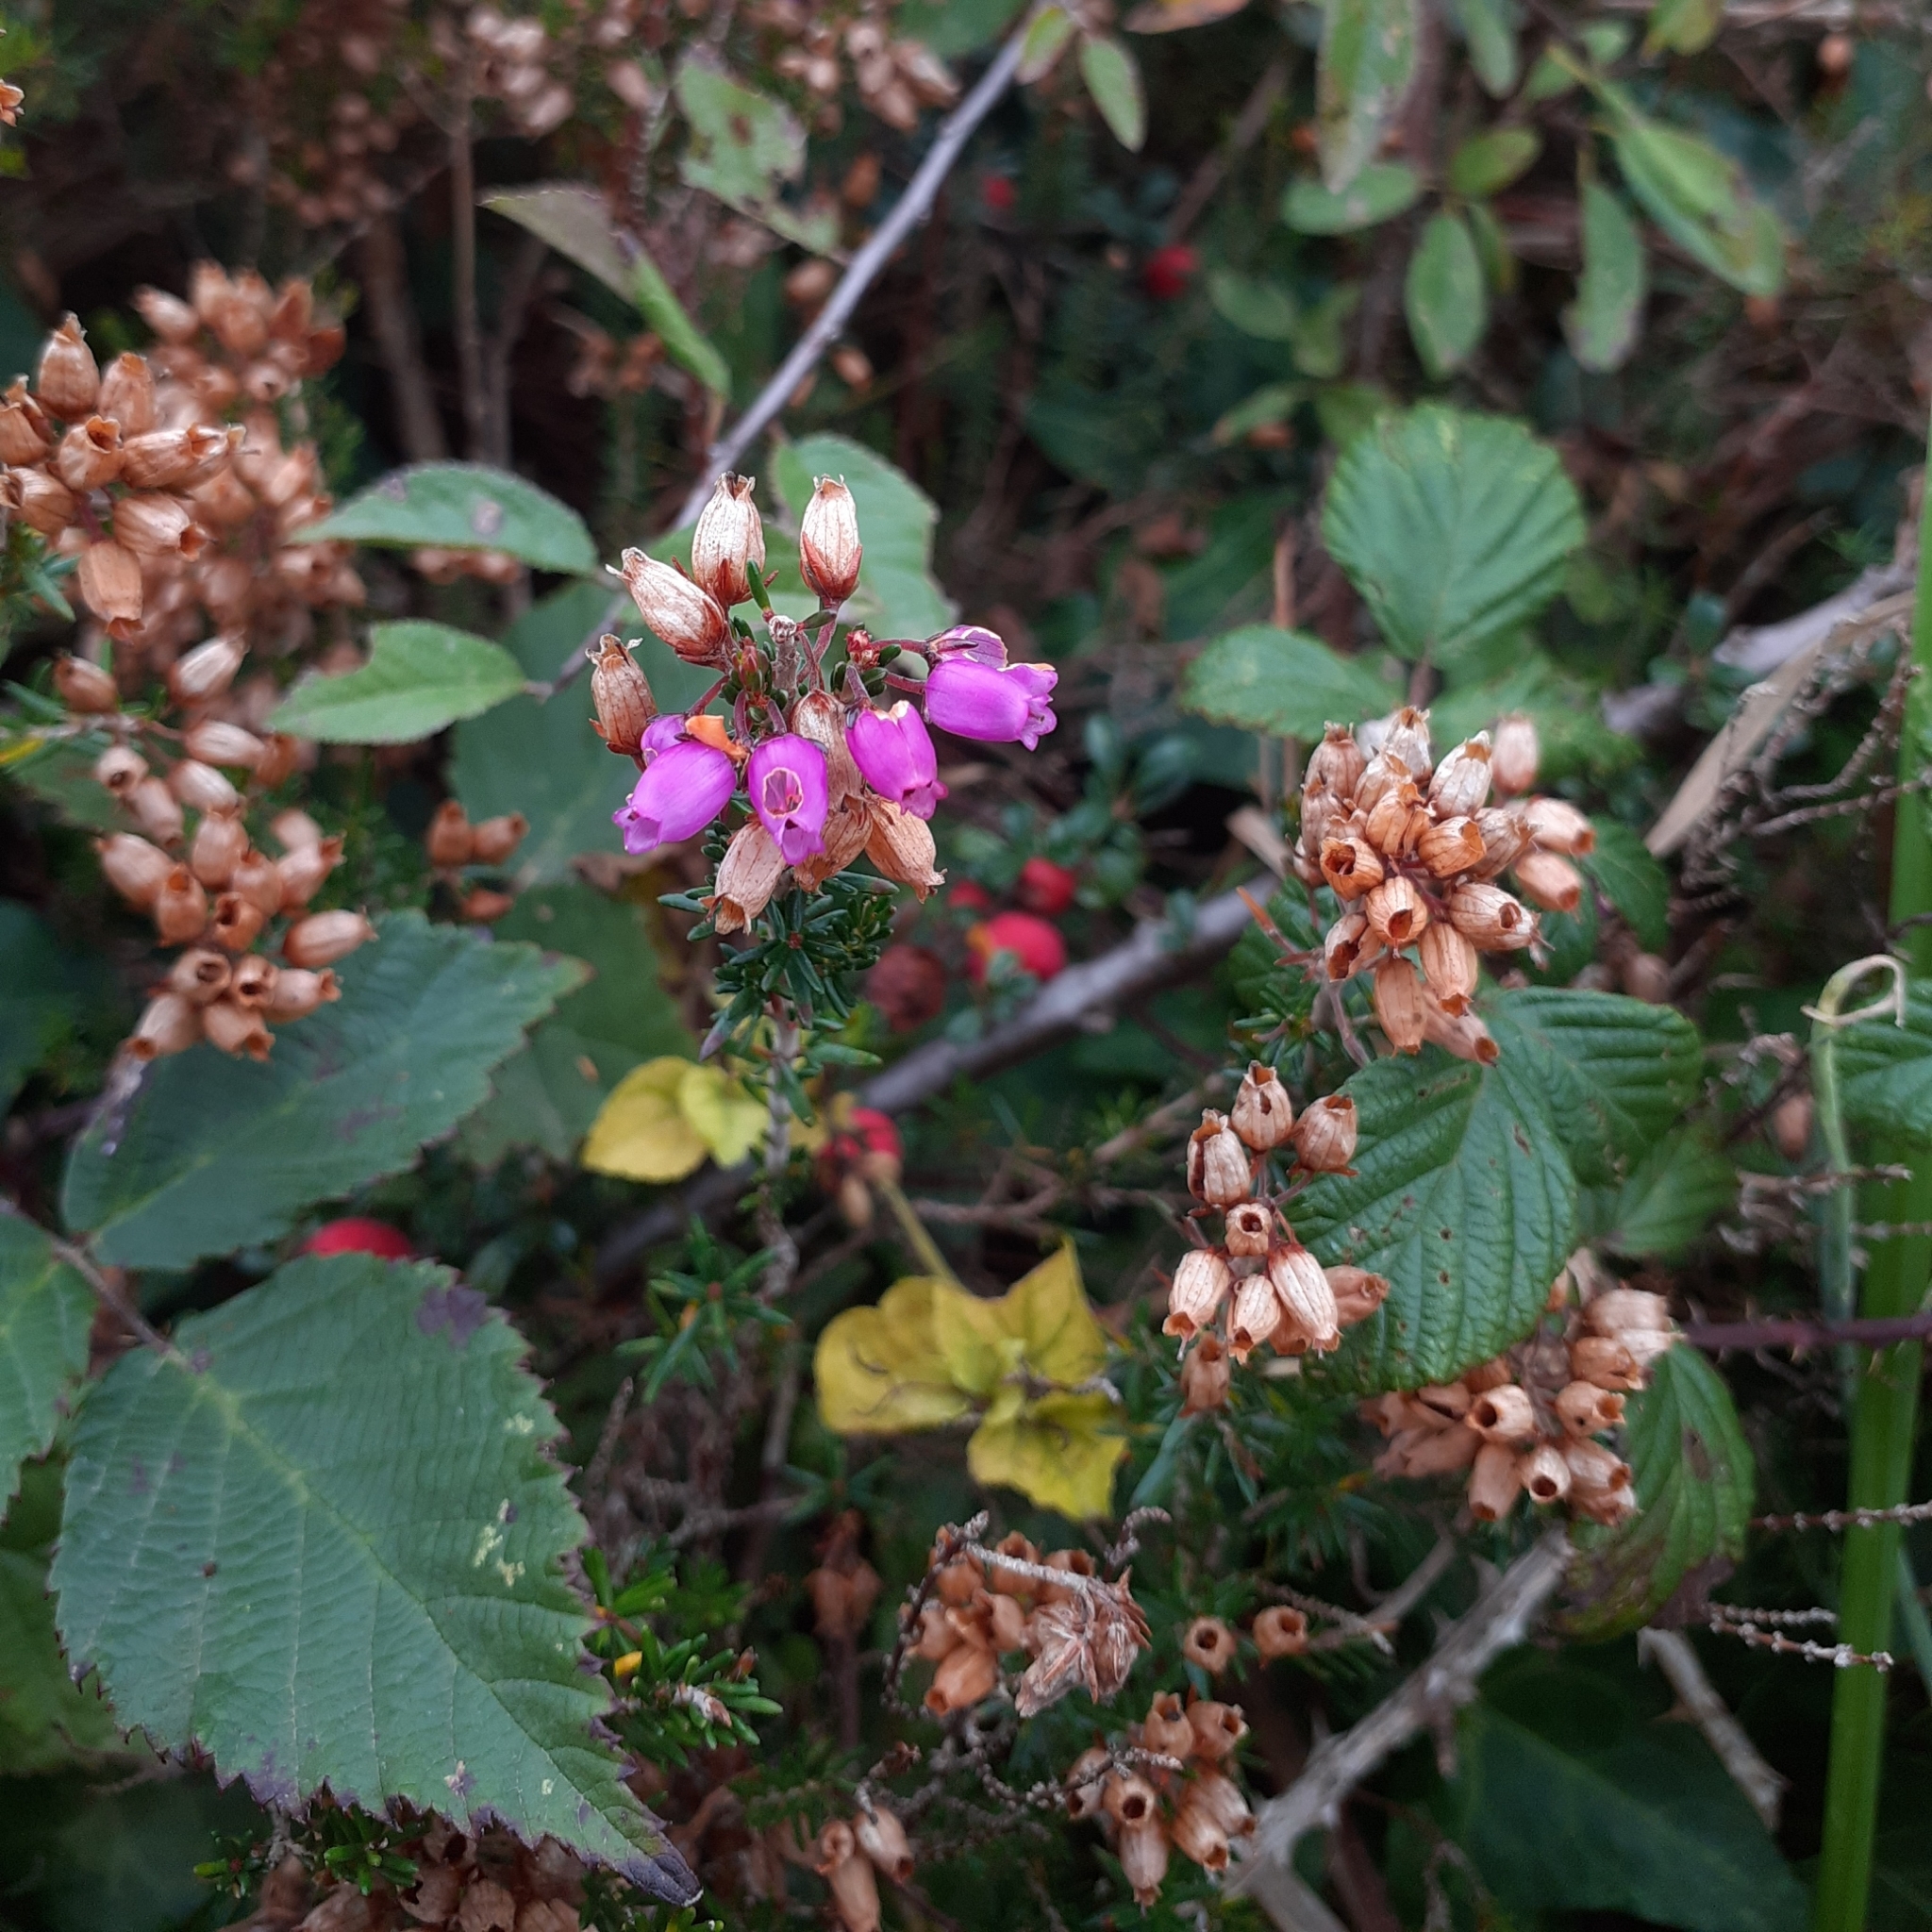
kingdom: Plantae
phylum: Tracheophyta
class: Magnoliopsida
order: Ericales
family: Ericaceae
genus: Erica
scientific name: Erica cinerea
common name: Bell heather
